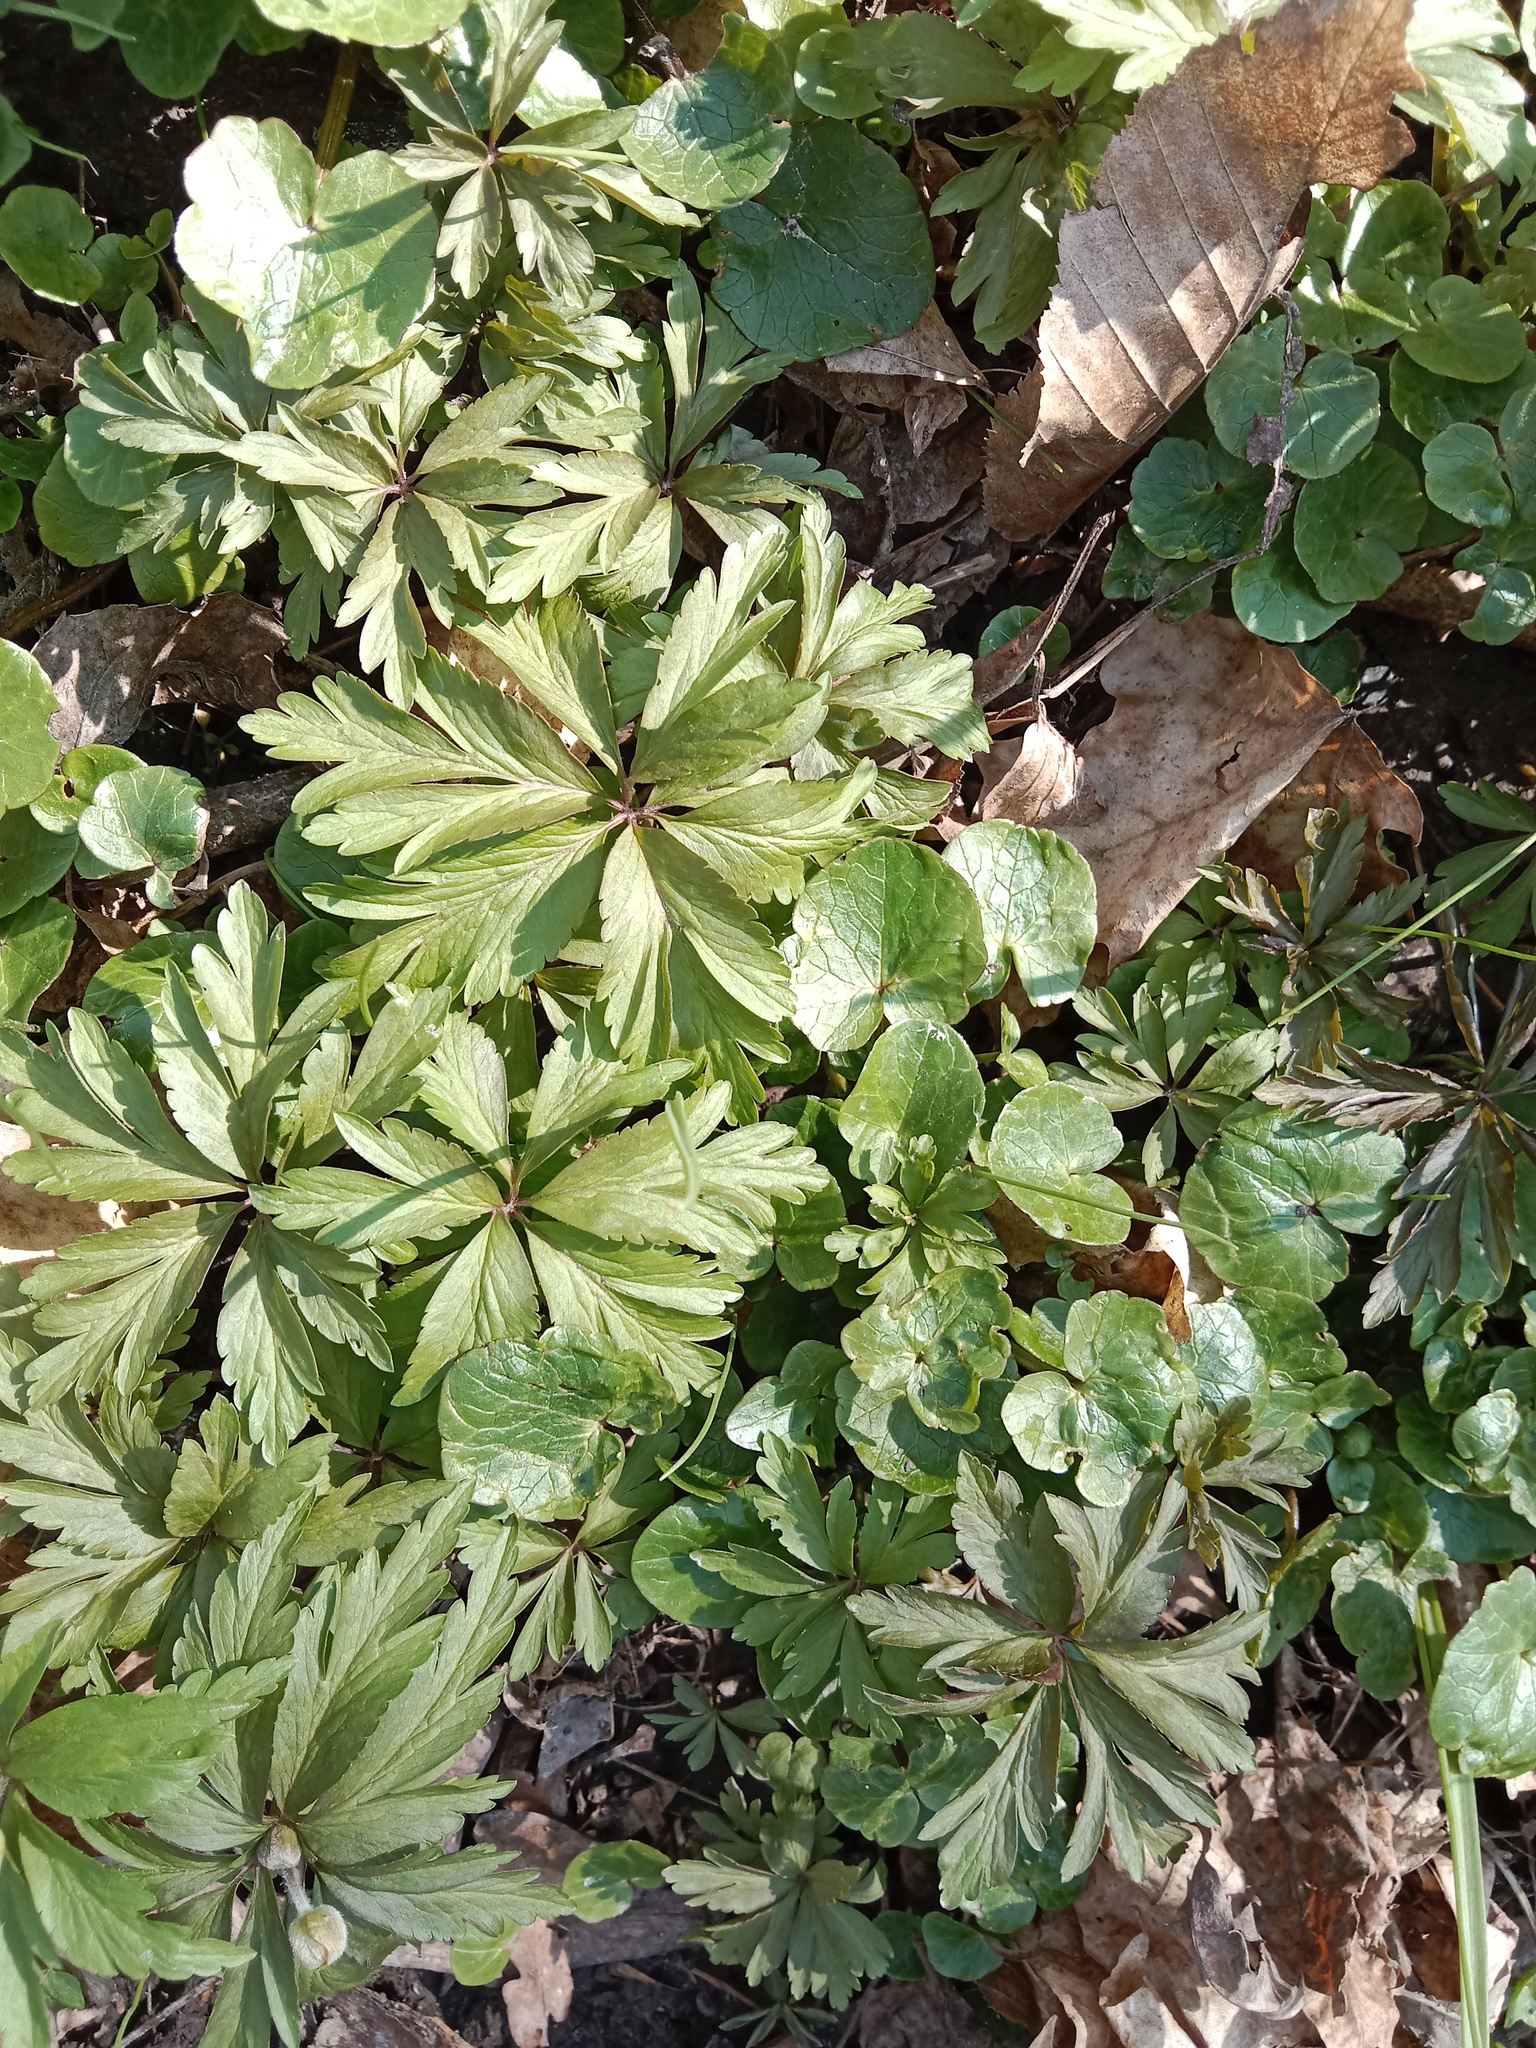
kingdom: Plantae
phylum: Tracheophyta
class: Magnoliopsida
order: Ranunculales
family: Ranunculaceae
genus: Anemone
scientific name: Anemone ranunculoides
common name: Yellow anemone
